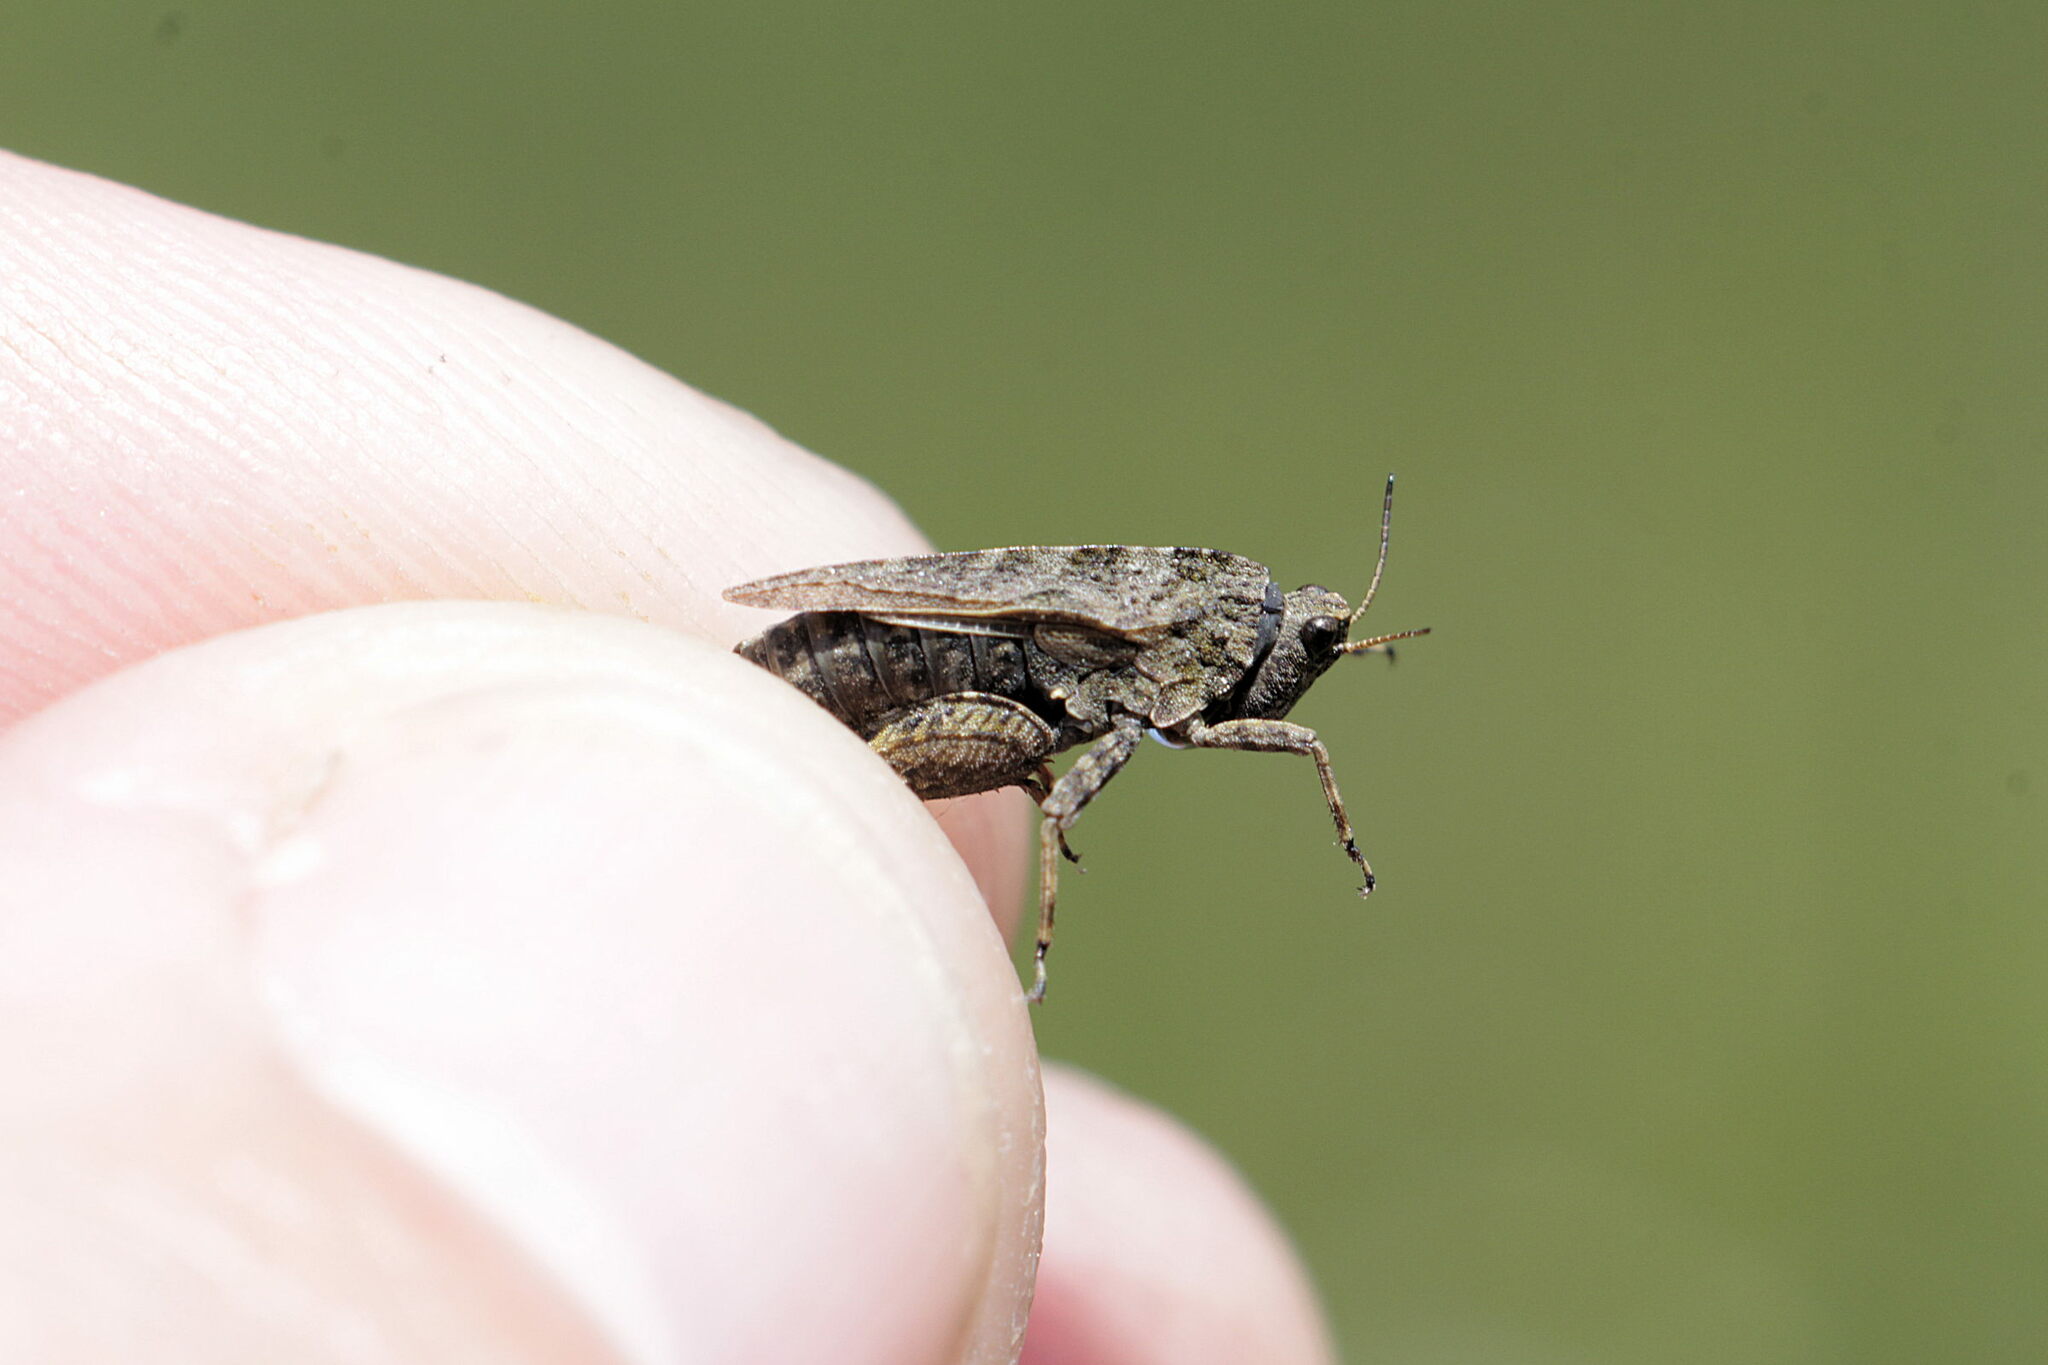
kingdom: Animalia
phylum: Arthropoda
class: Insecta
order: Orthoptera
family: Tetrigidae
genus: Tetrix
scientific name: Tetrix undulata
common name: Common groundhopper
